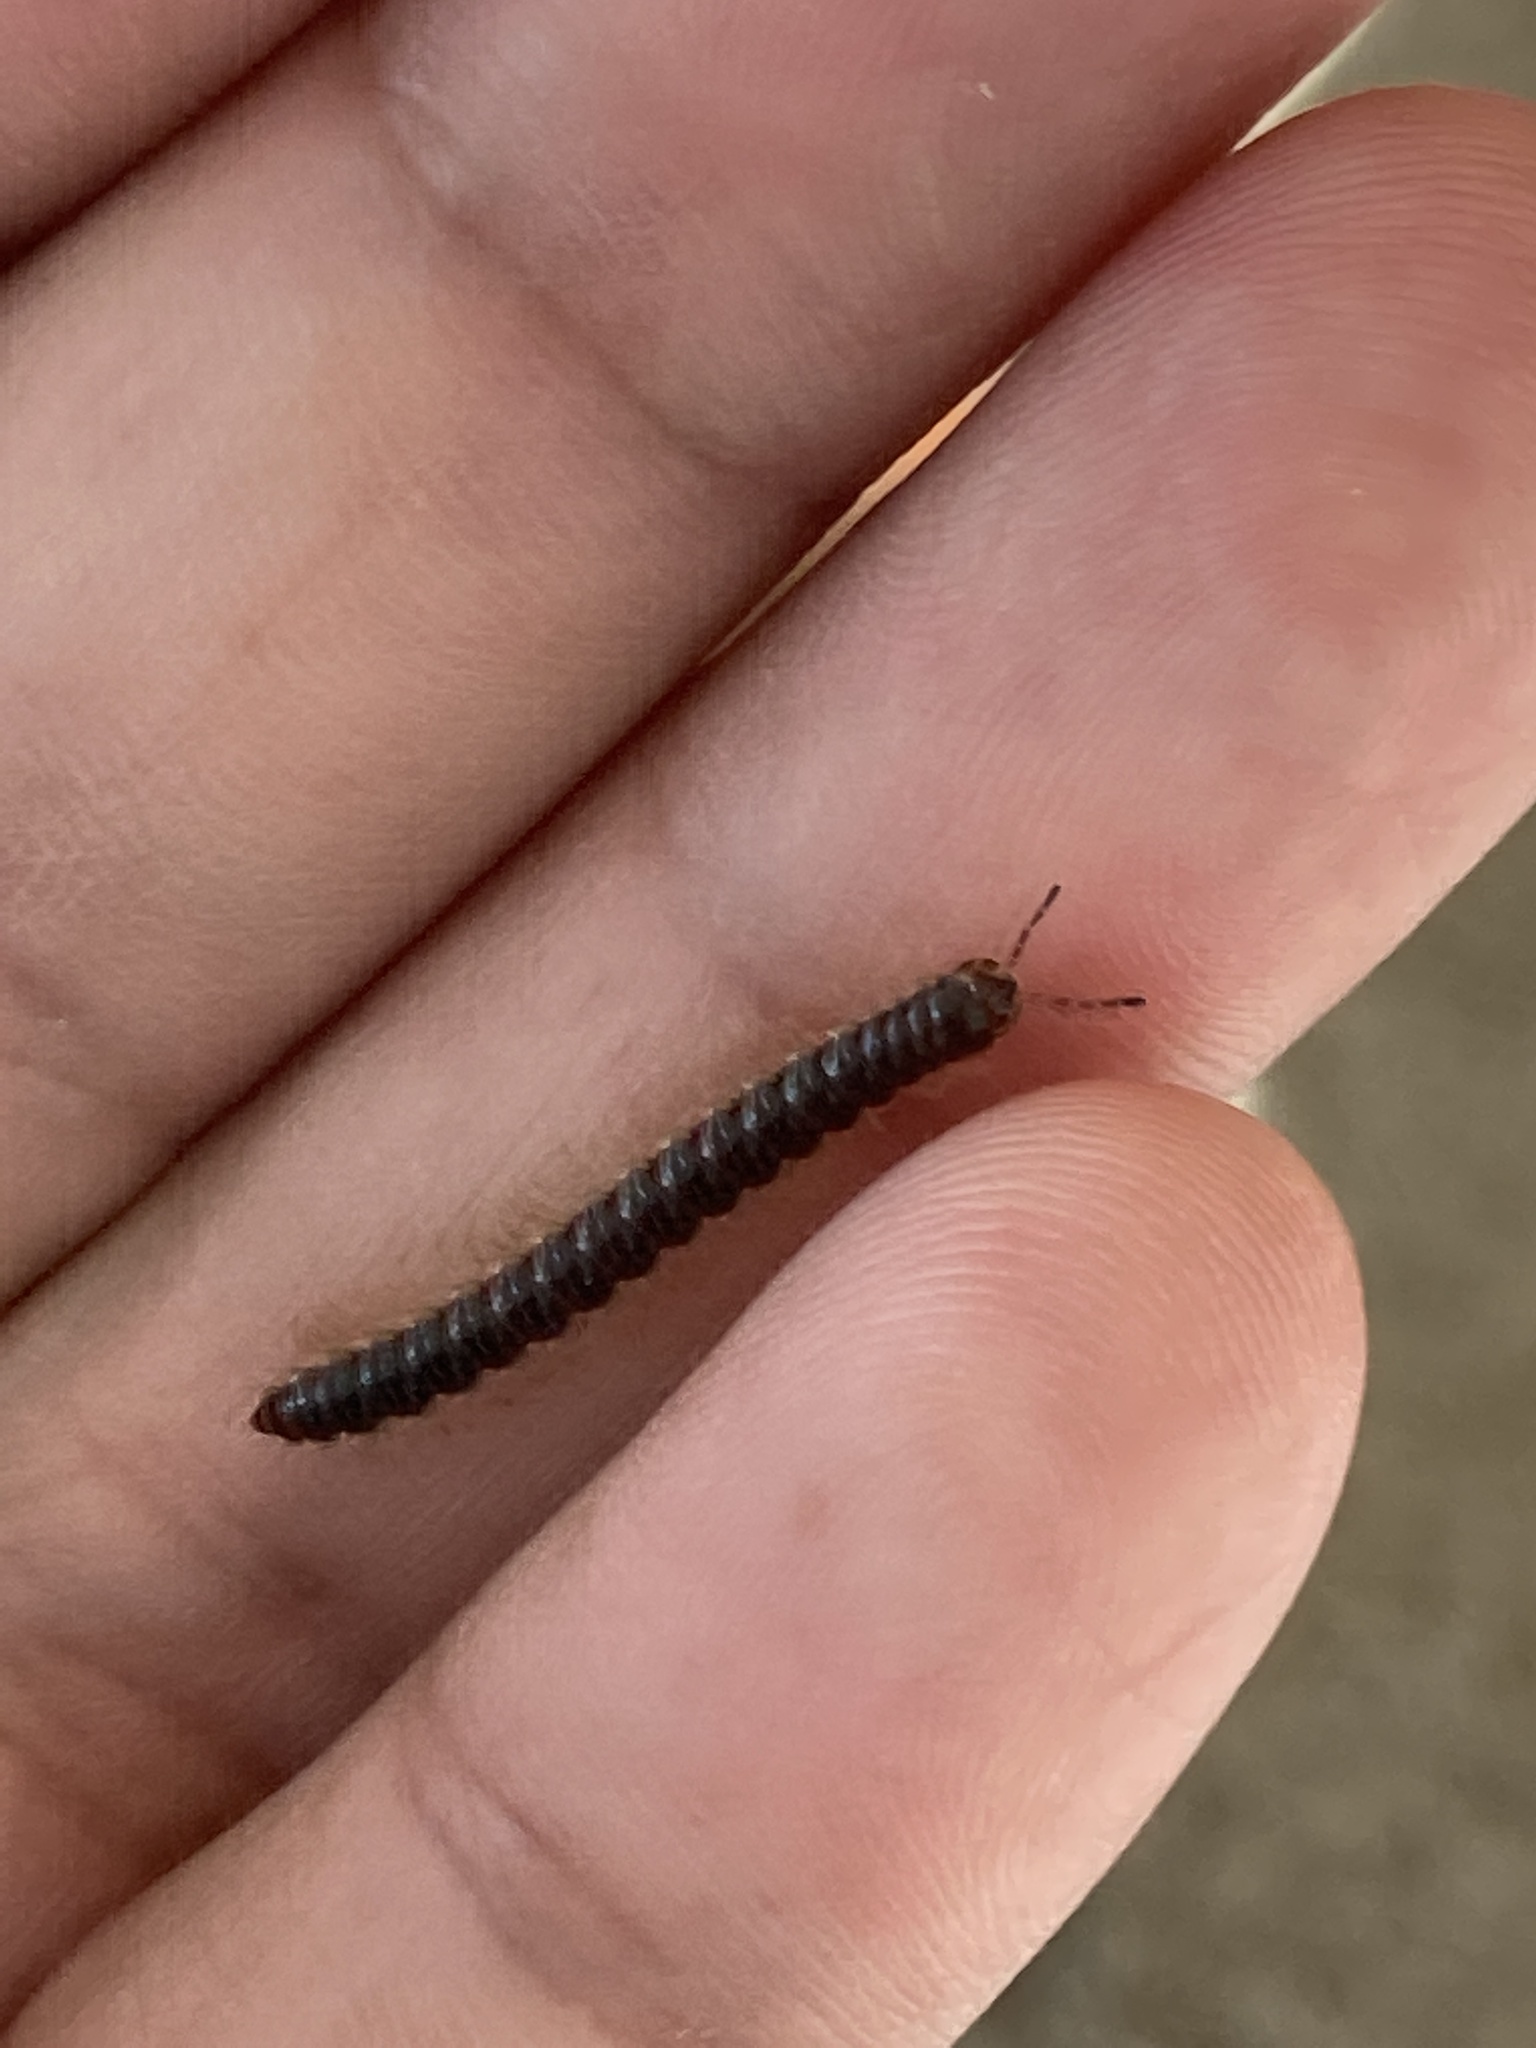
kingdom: Animalia
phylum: Arthropoda
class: Diplopoda
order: Polydesmida
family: Paradoxosomatidae
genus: Oxidus
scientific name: Oxidus gracilis
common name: Greenhouse millipede
